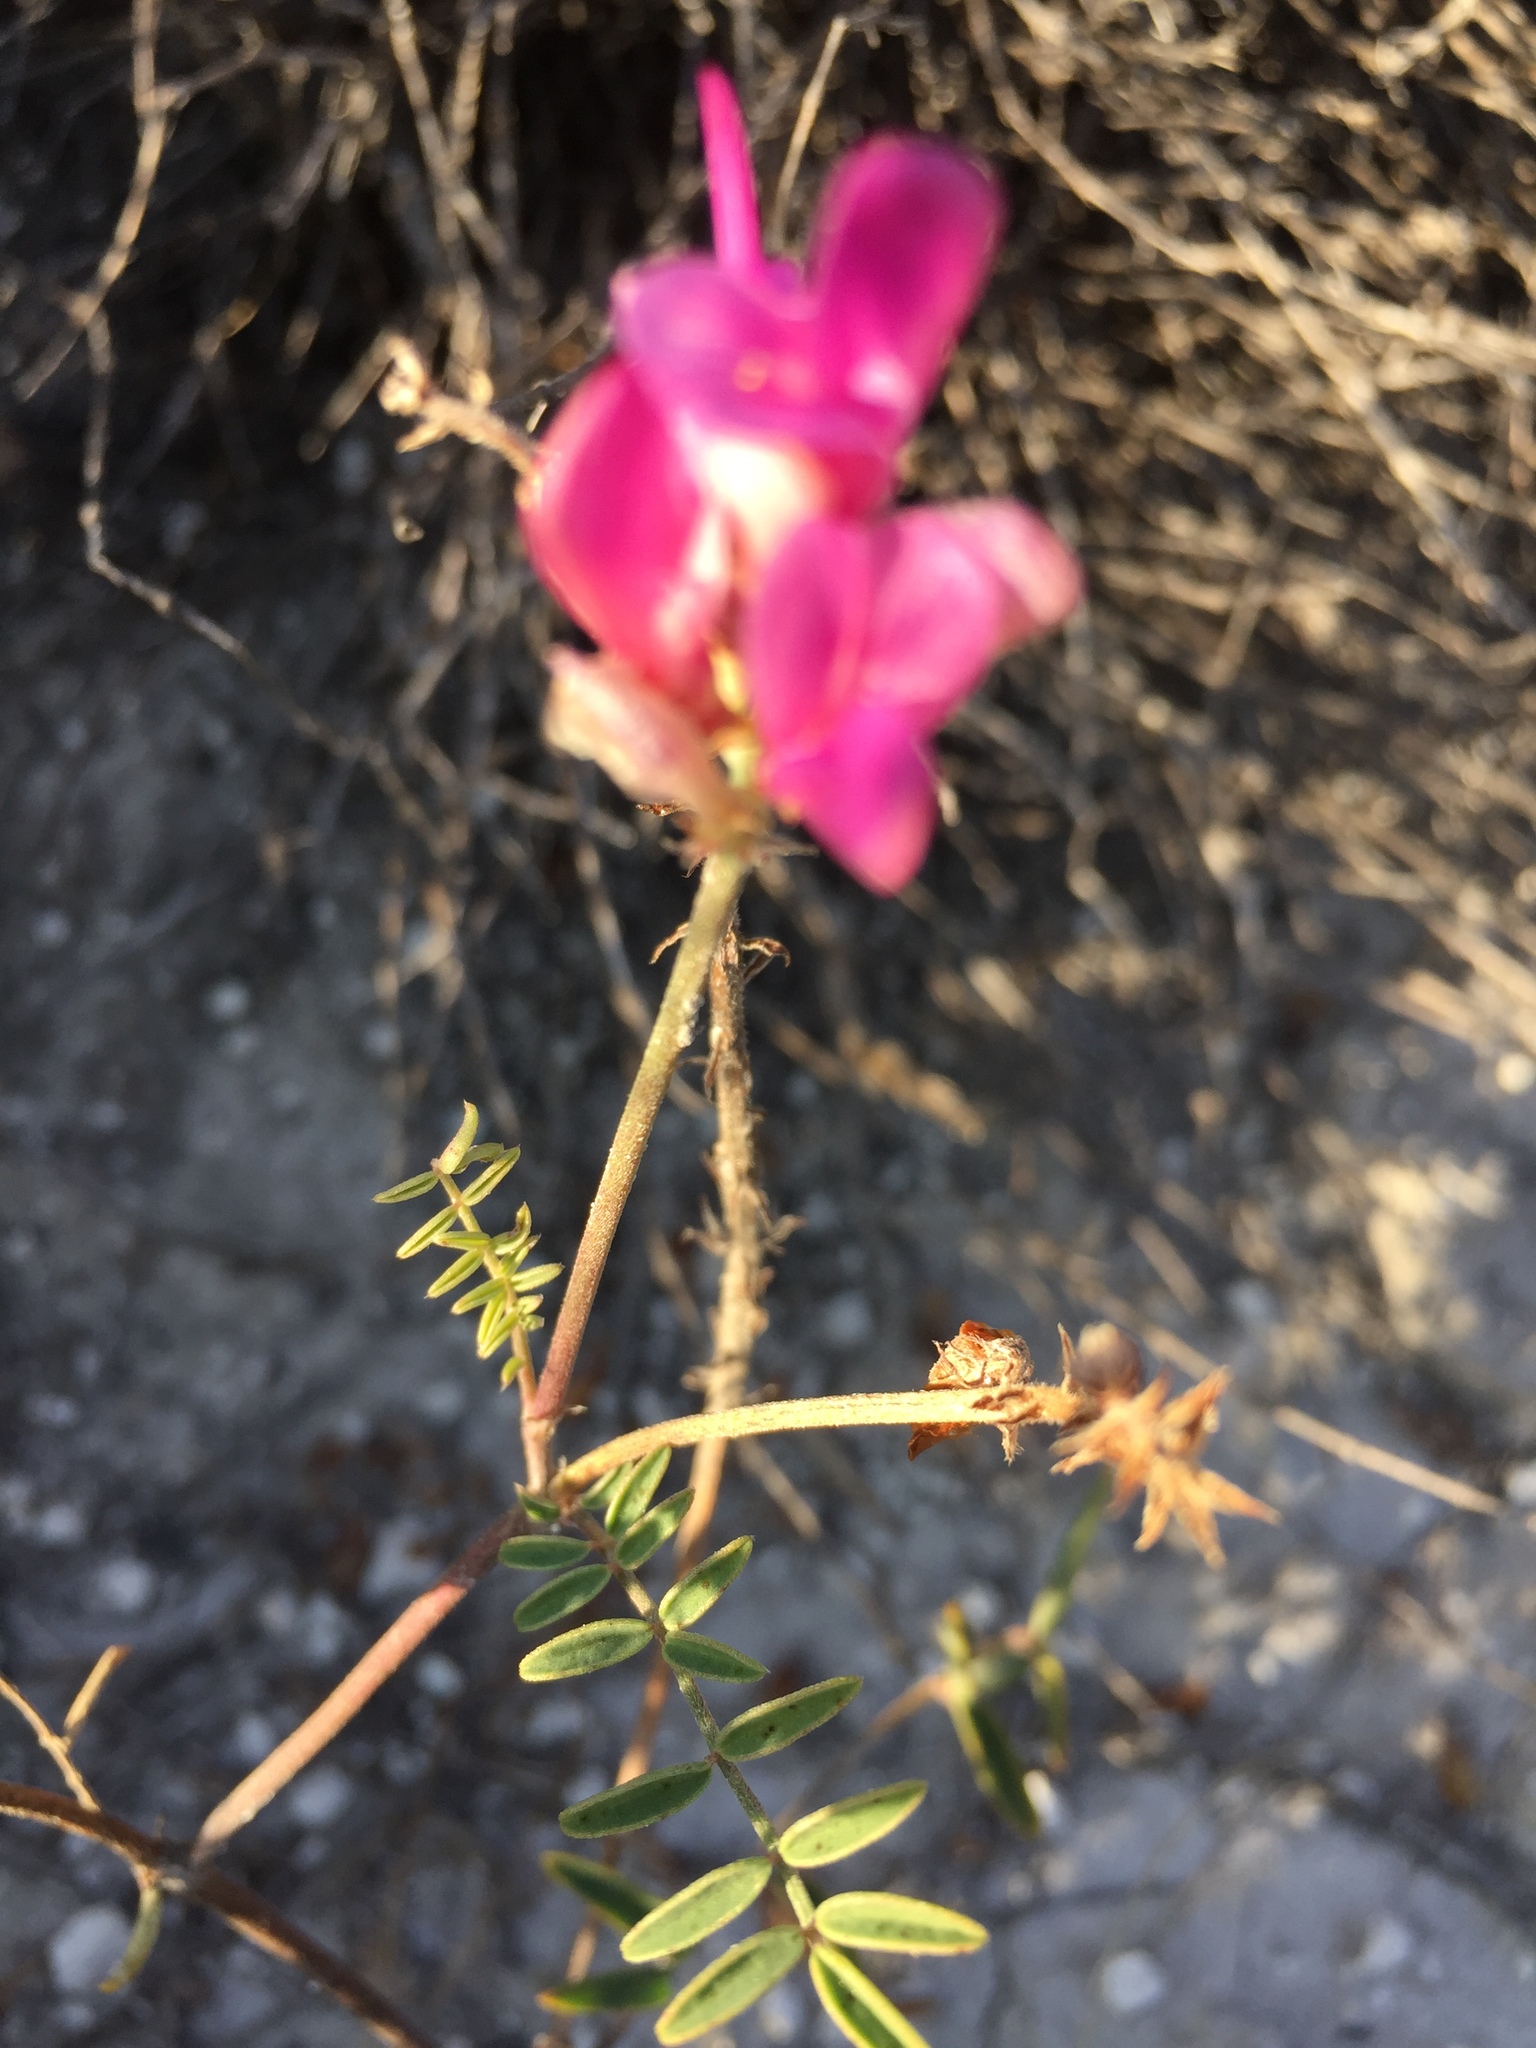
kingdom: Plantae
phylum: Tracheophyta
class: Magnoliopsida
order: Fabales
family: Fabaceae
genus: Hedysarum
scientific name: Hedysarum ucrainicum
